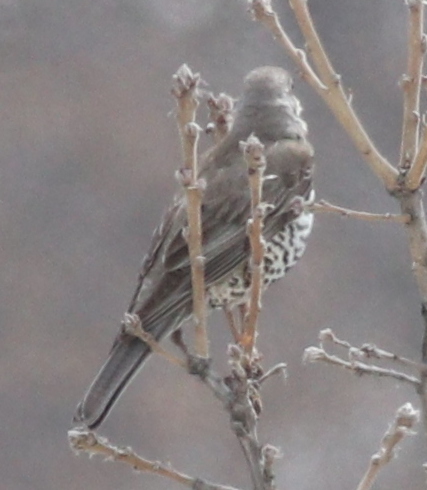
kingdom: Animalia
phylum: Chordata
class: Aves
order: Passeriformes
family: Turdidae
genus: Turdus
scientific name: Turdus viscivorus
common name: Mistle thrush
